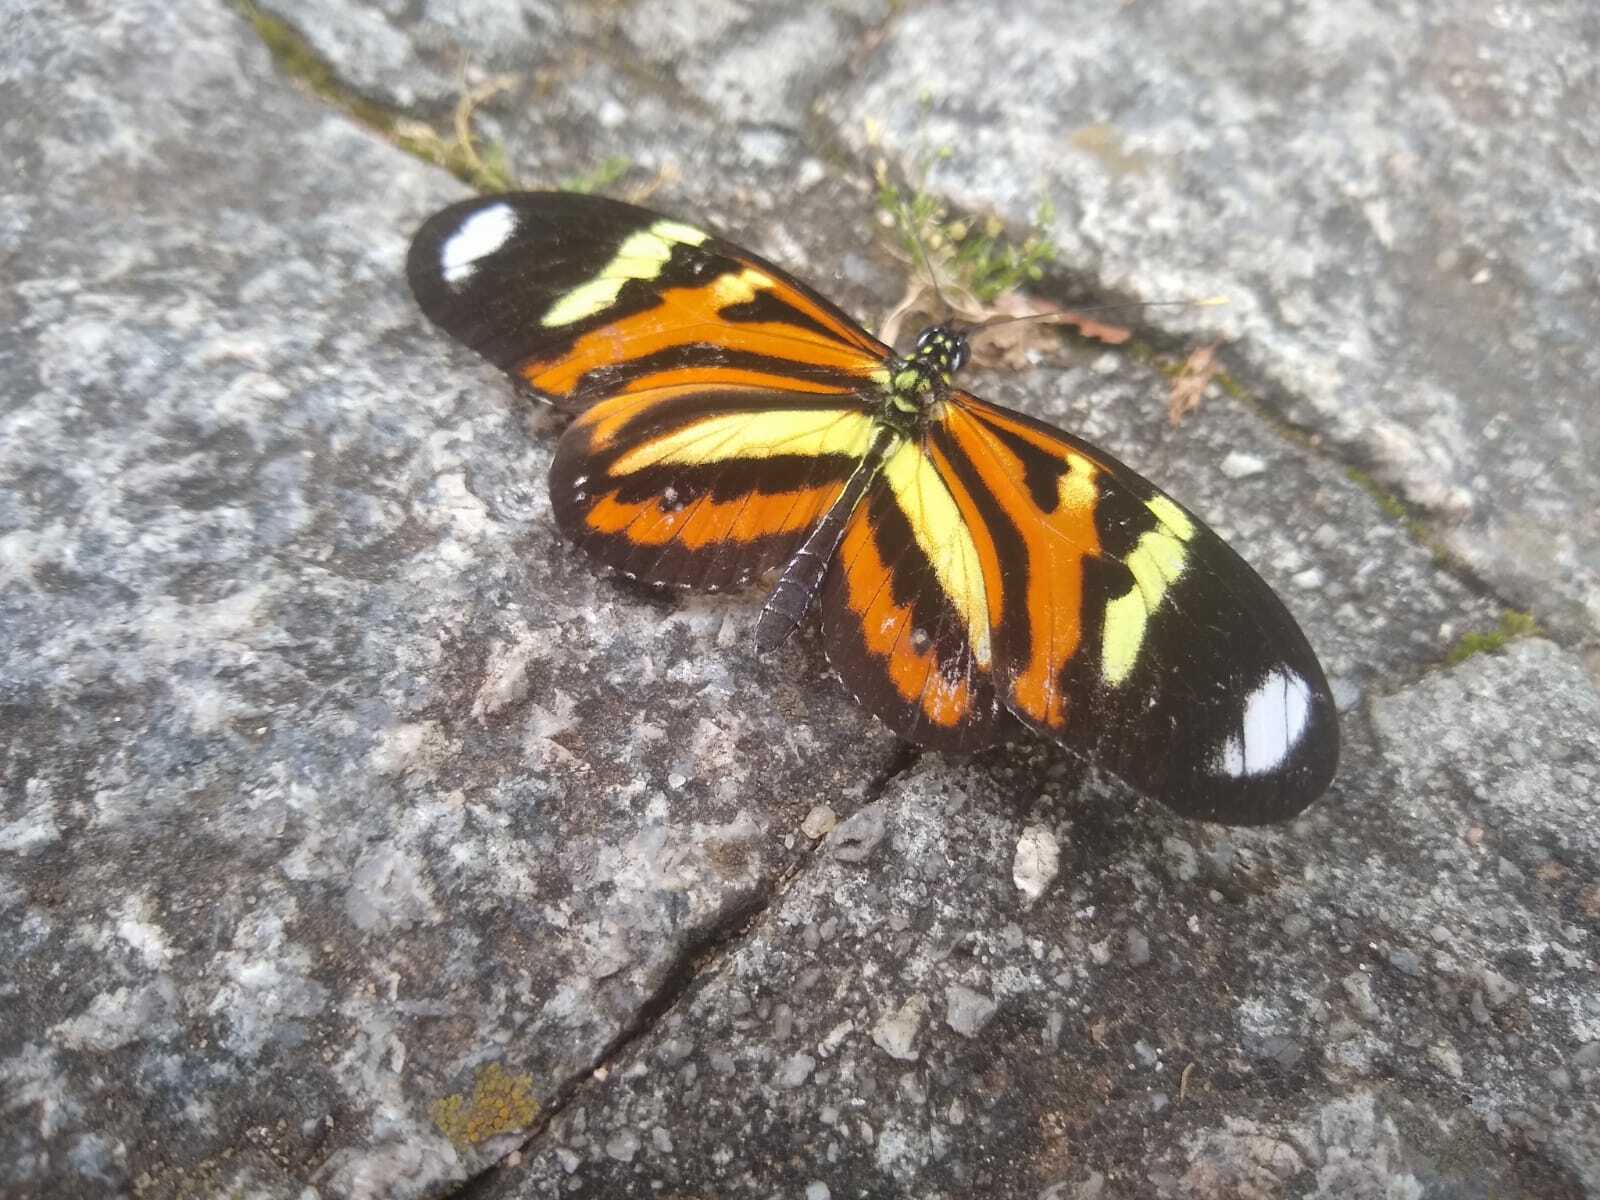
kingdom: Animalia
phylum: Arthropoda
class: Insecta
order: Lepidoptera
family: Nymphalidae
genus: Heliconius
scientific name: Heliconius ethilla
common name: Ethilia longwing
